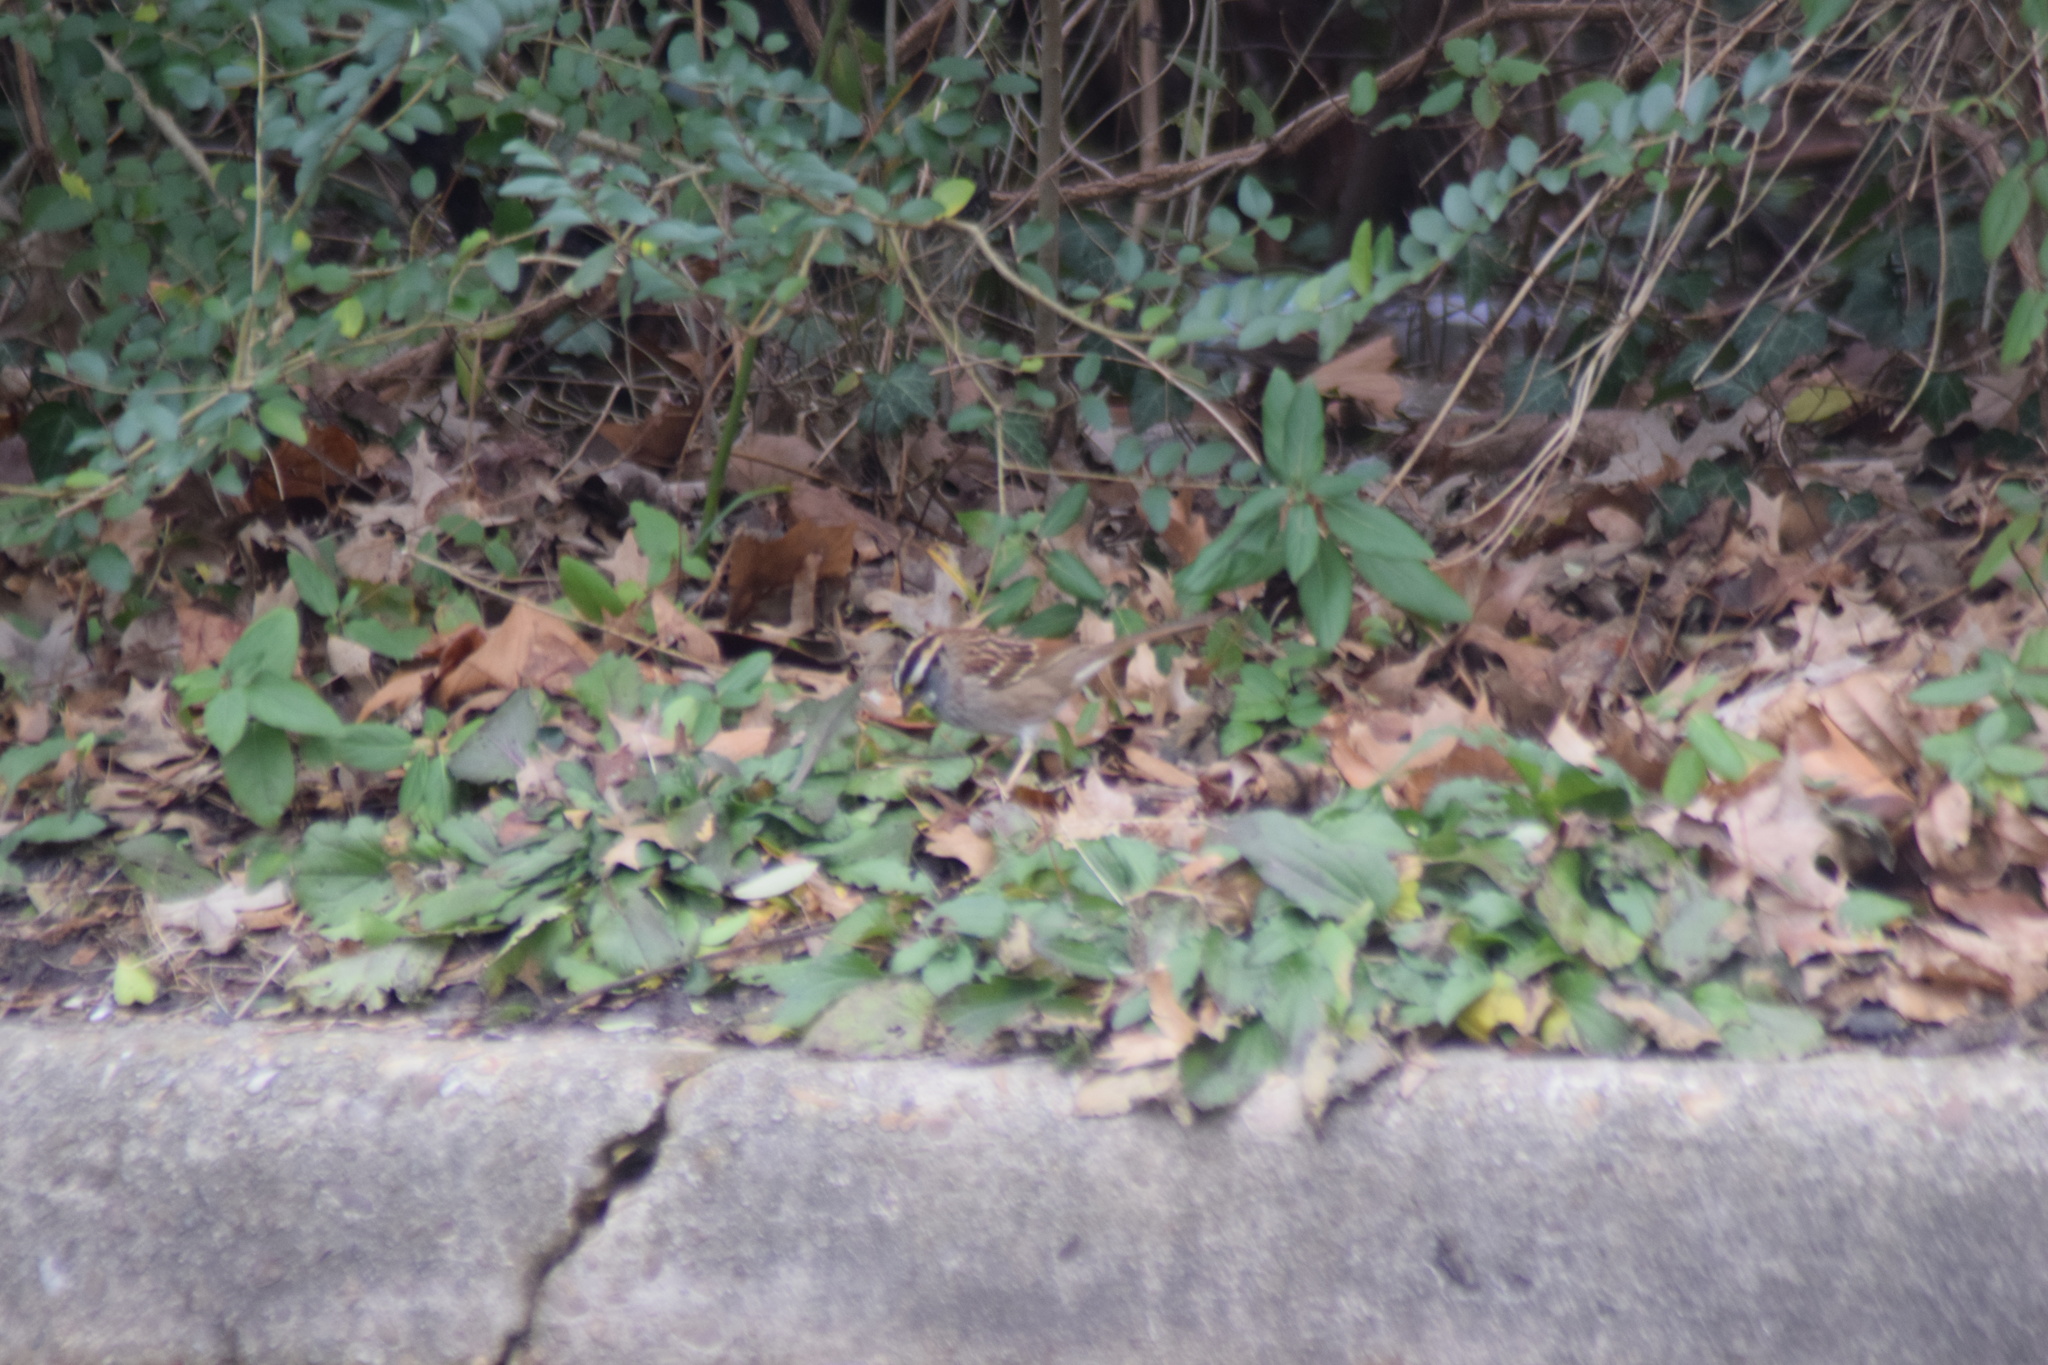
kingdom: Animalia
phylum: Chordata
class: Aves
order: Passeriformes
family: Passerellidae
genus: Zonotrichia
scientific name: Zonotrichia albicollis
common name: White-throated sparrow
